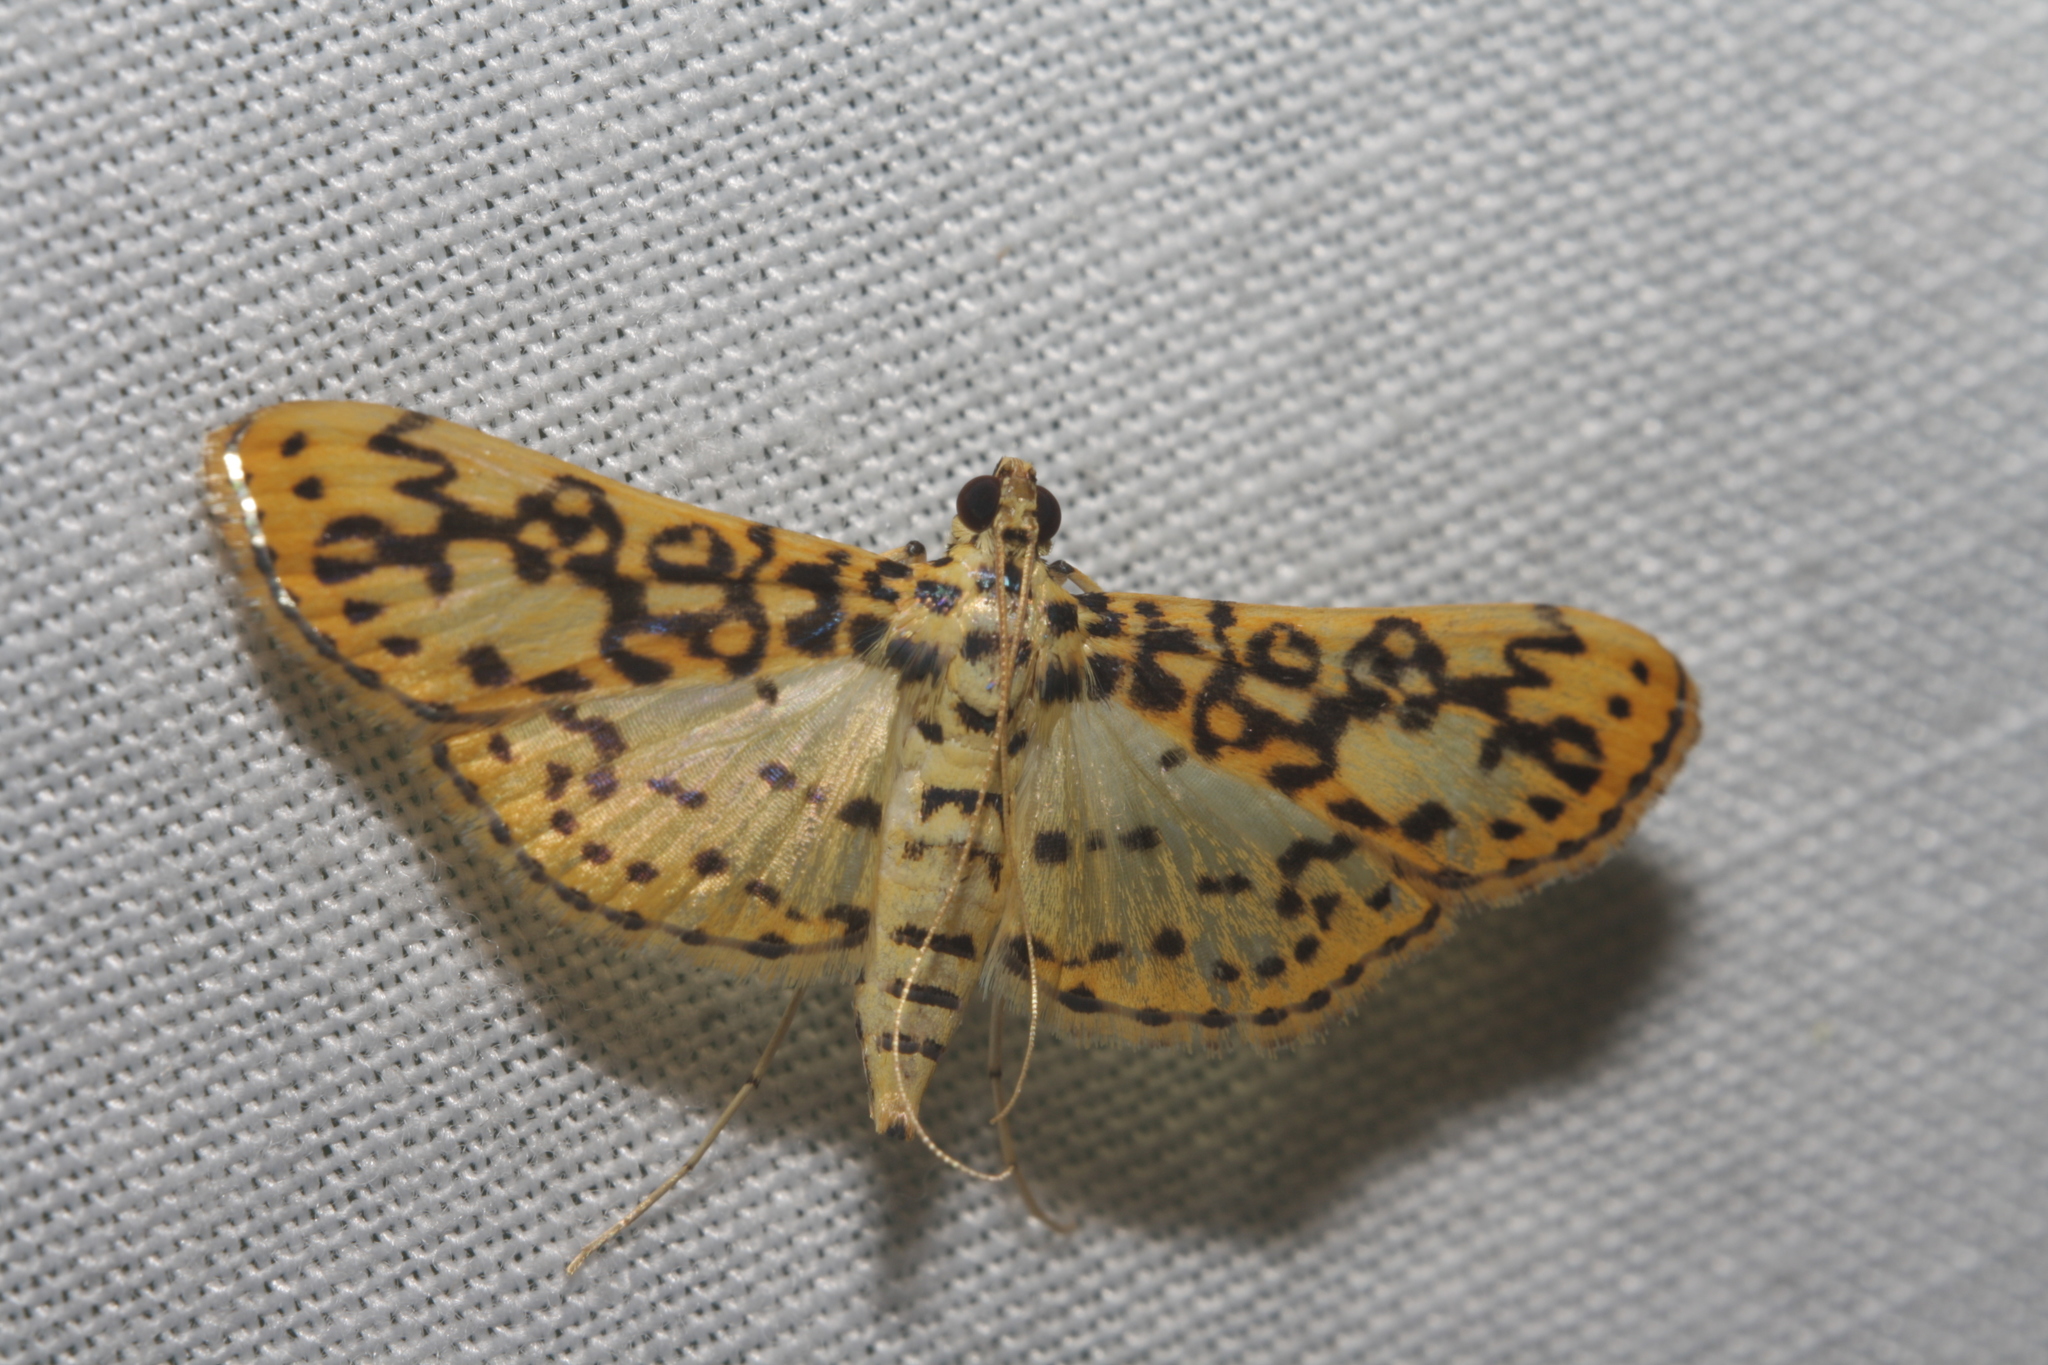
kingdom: Animalia
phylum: Arthropoda
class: Insecta
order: Lepidoptera
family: Crambidae
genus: Asturodes
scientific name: Asturodes fimbriauralis
